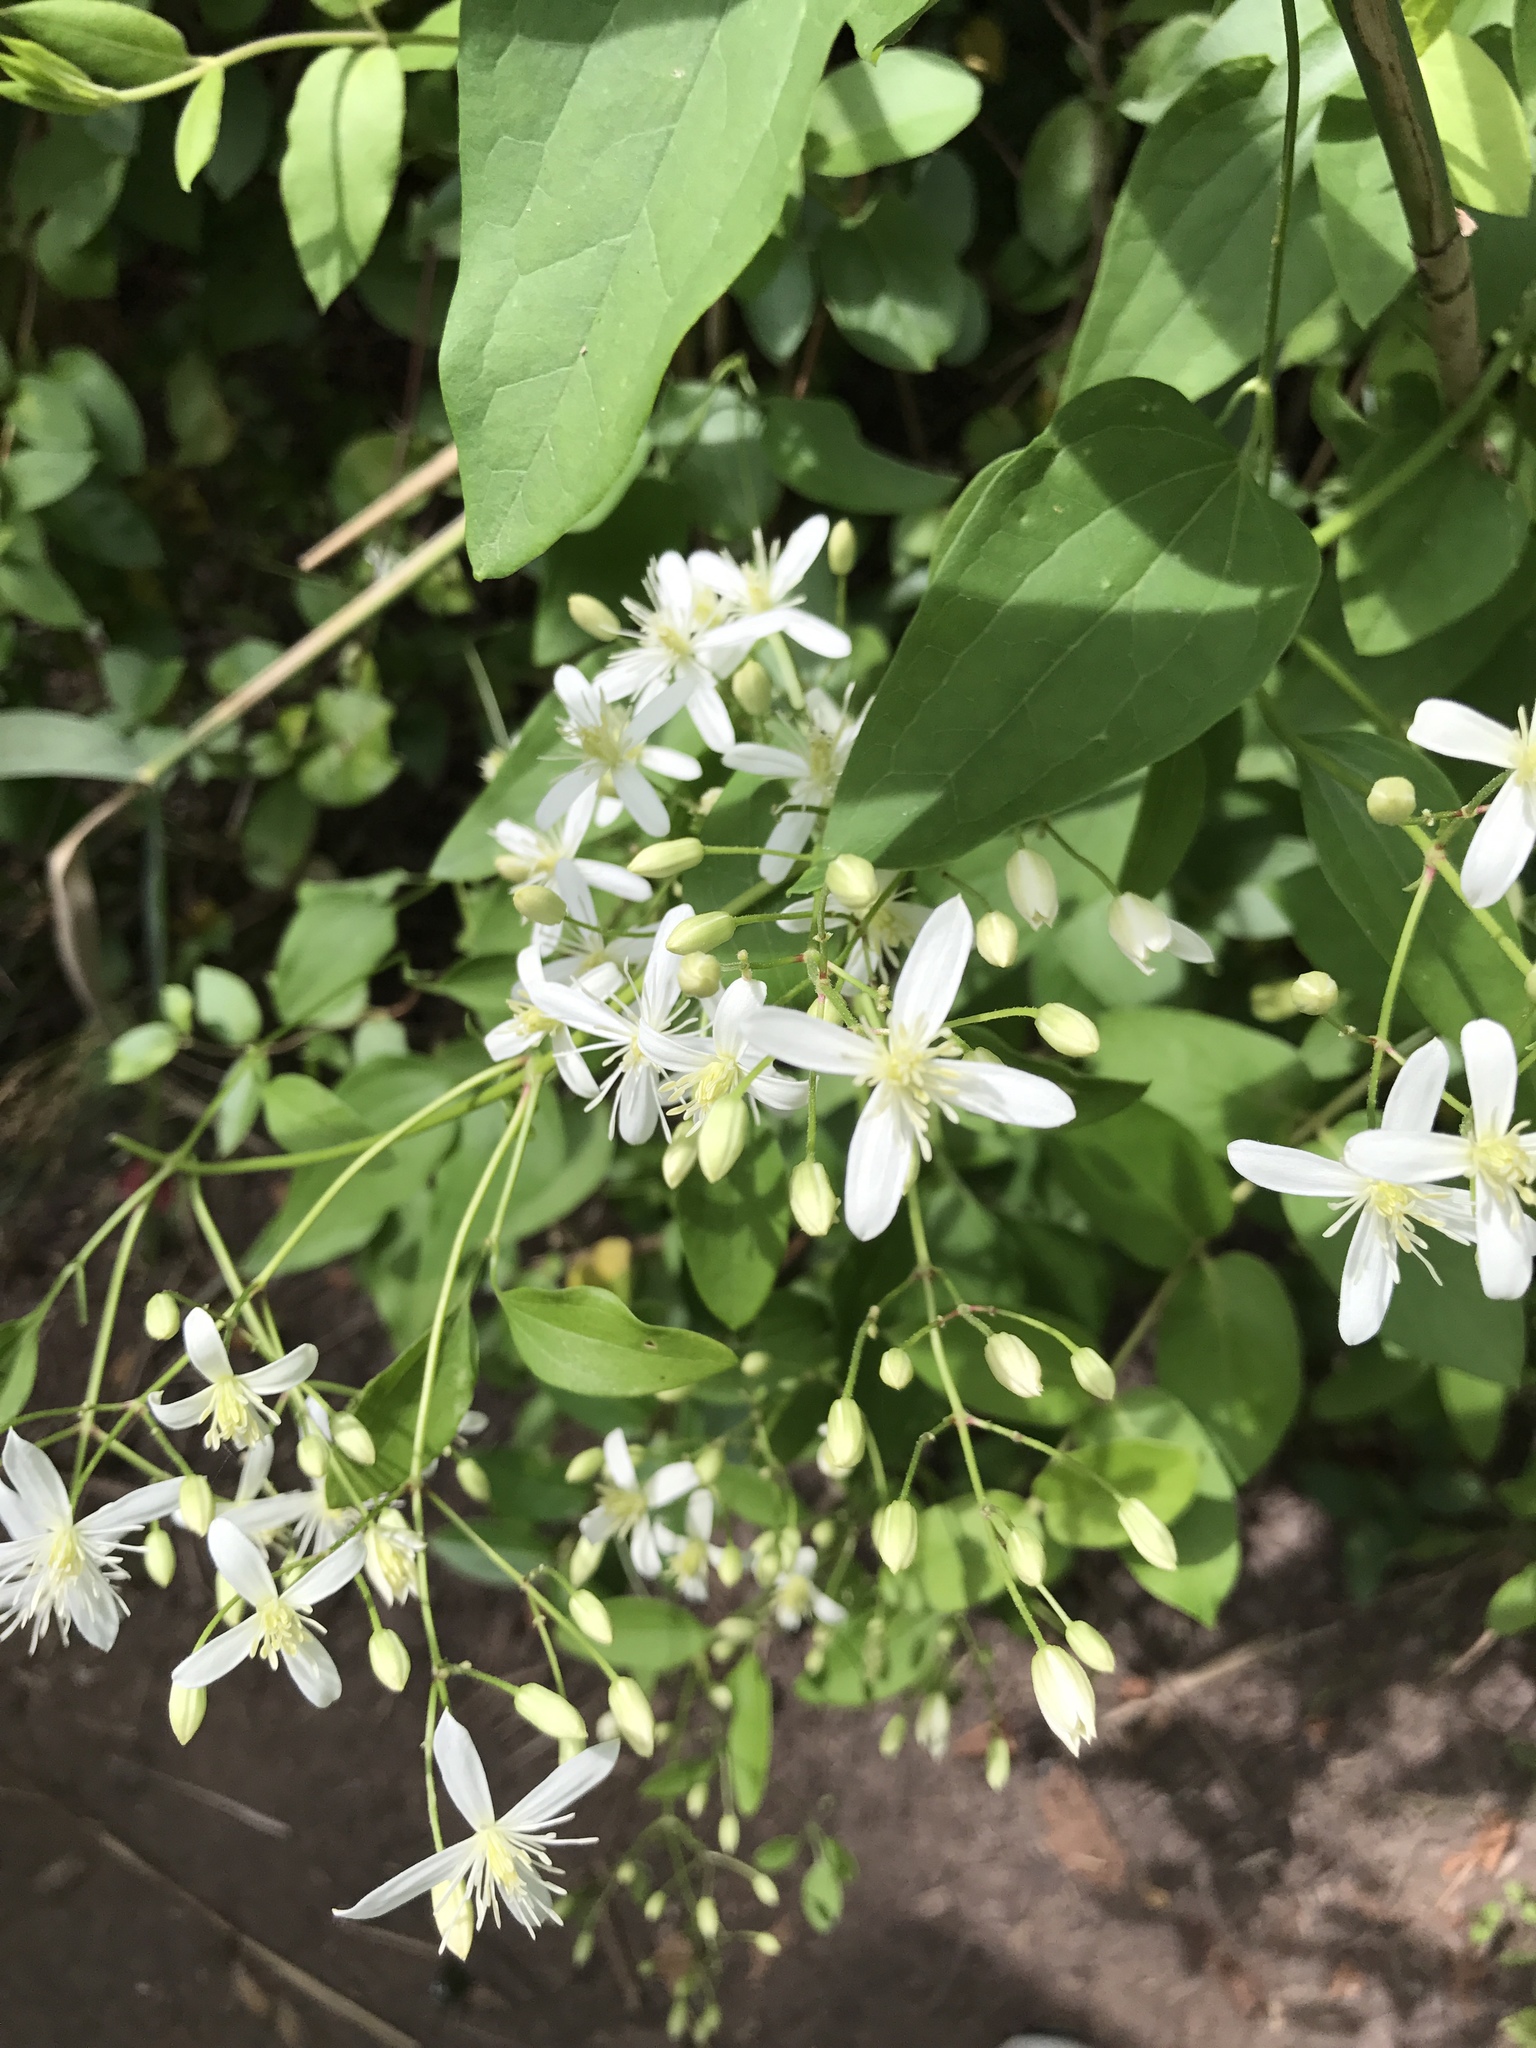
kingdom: Plantae
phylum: Tracheophyta
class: Magnoliopsida
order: Ranunculales
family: Ranunculaceae
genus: Clematis
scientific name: Clematis terniflora
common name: Sweet autumn clematis
